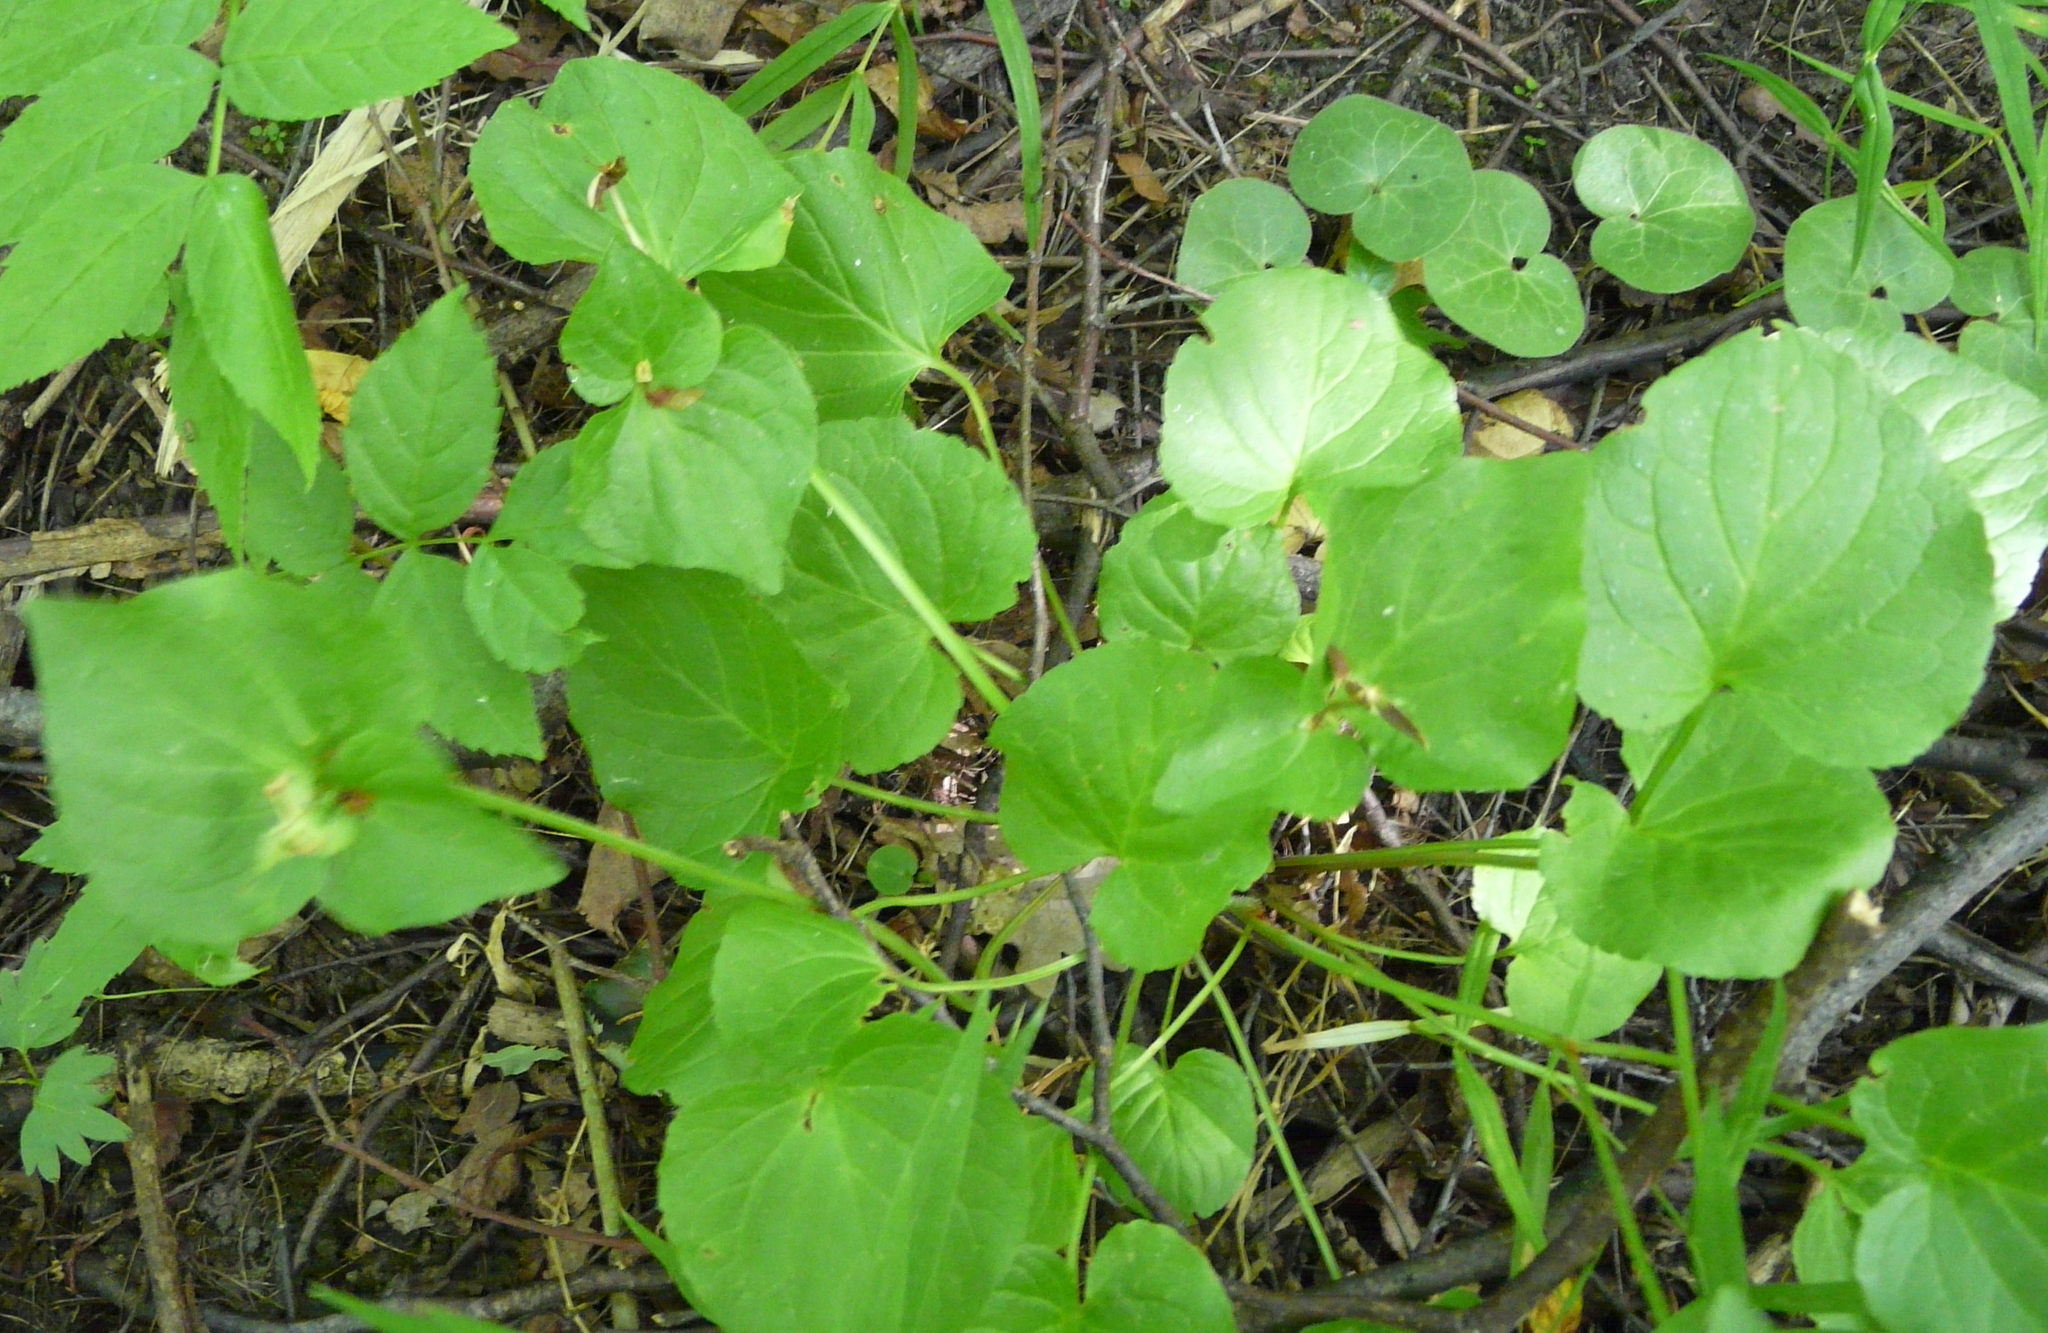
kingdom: Plantae
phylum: Tracheophyta
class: Magnoliopsida
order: Malpighiales
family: Violaceae
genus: Viola
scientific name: Viola mirabilis
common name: Wonder violet
